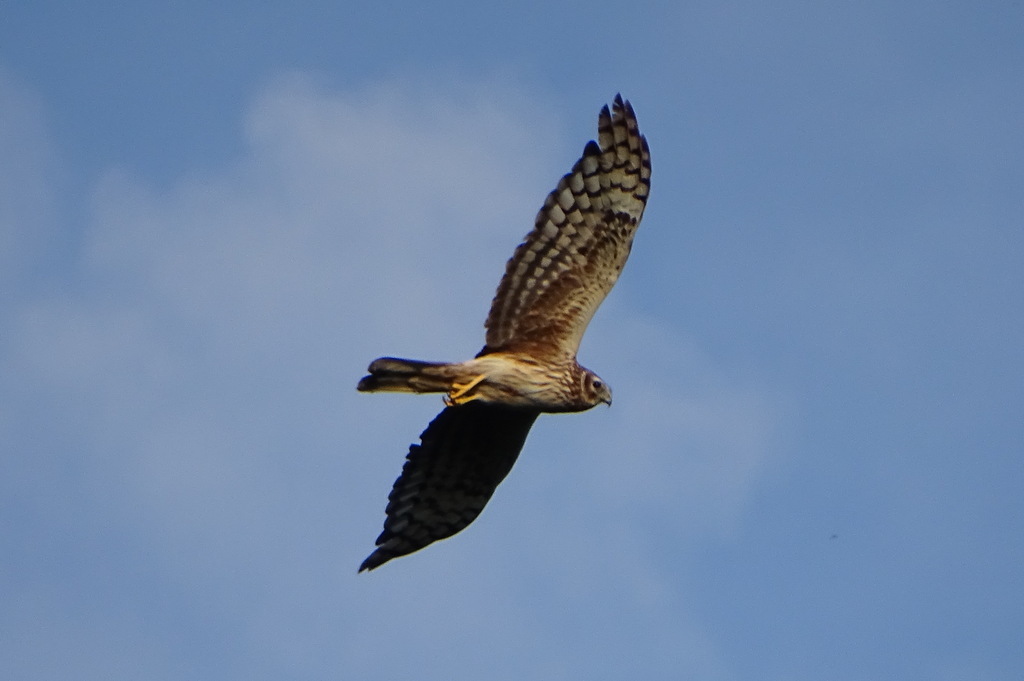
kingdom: Animalia
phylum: Chordata
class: Aves
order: Accipitriformes
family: Accipitridae
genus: Circus
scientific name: Circus cyaneus
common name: Hen harrier
